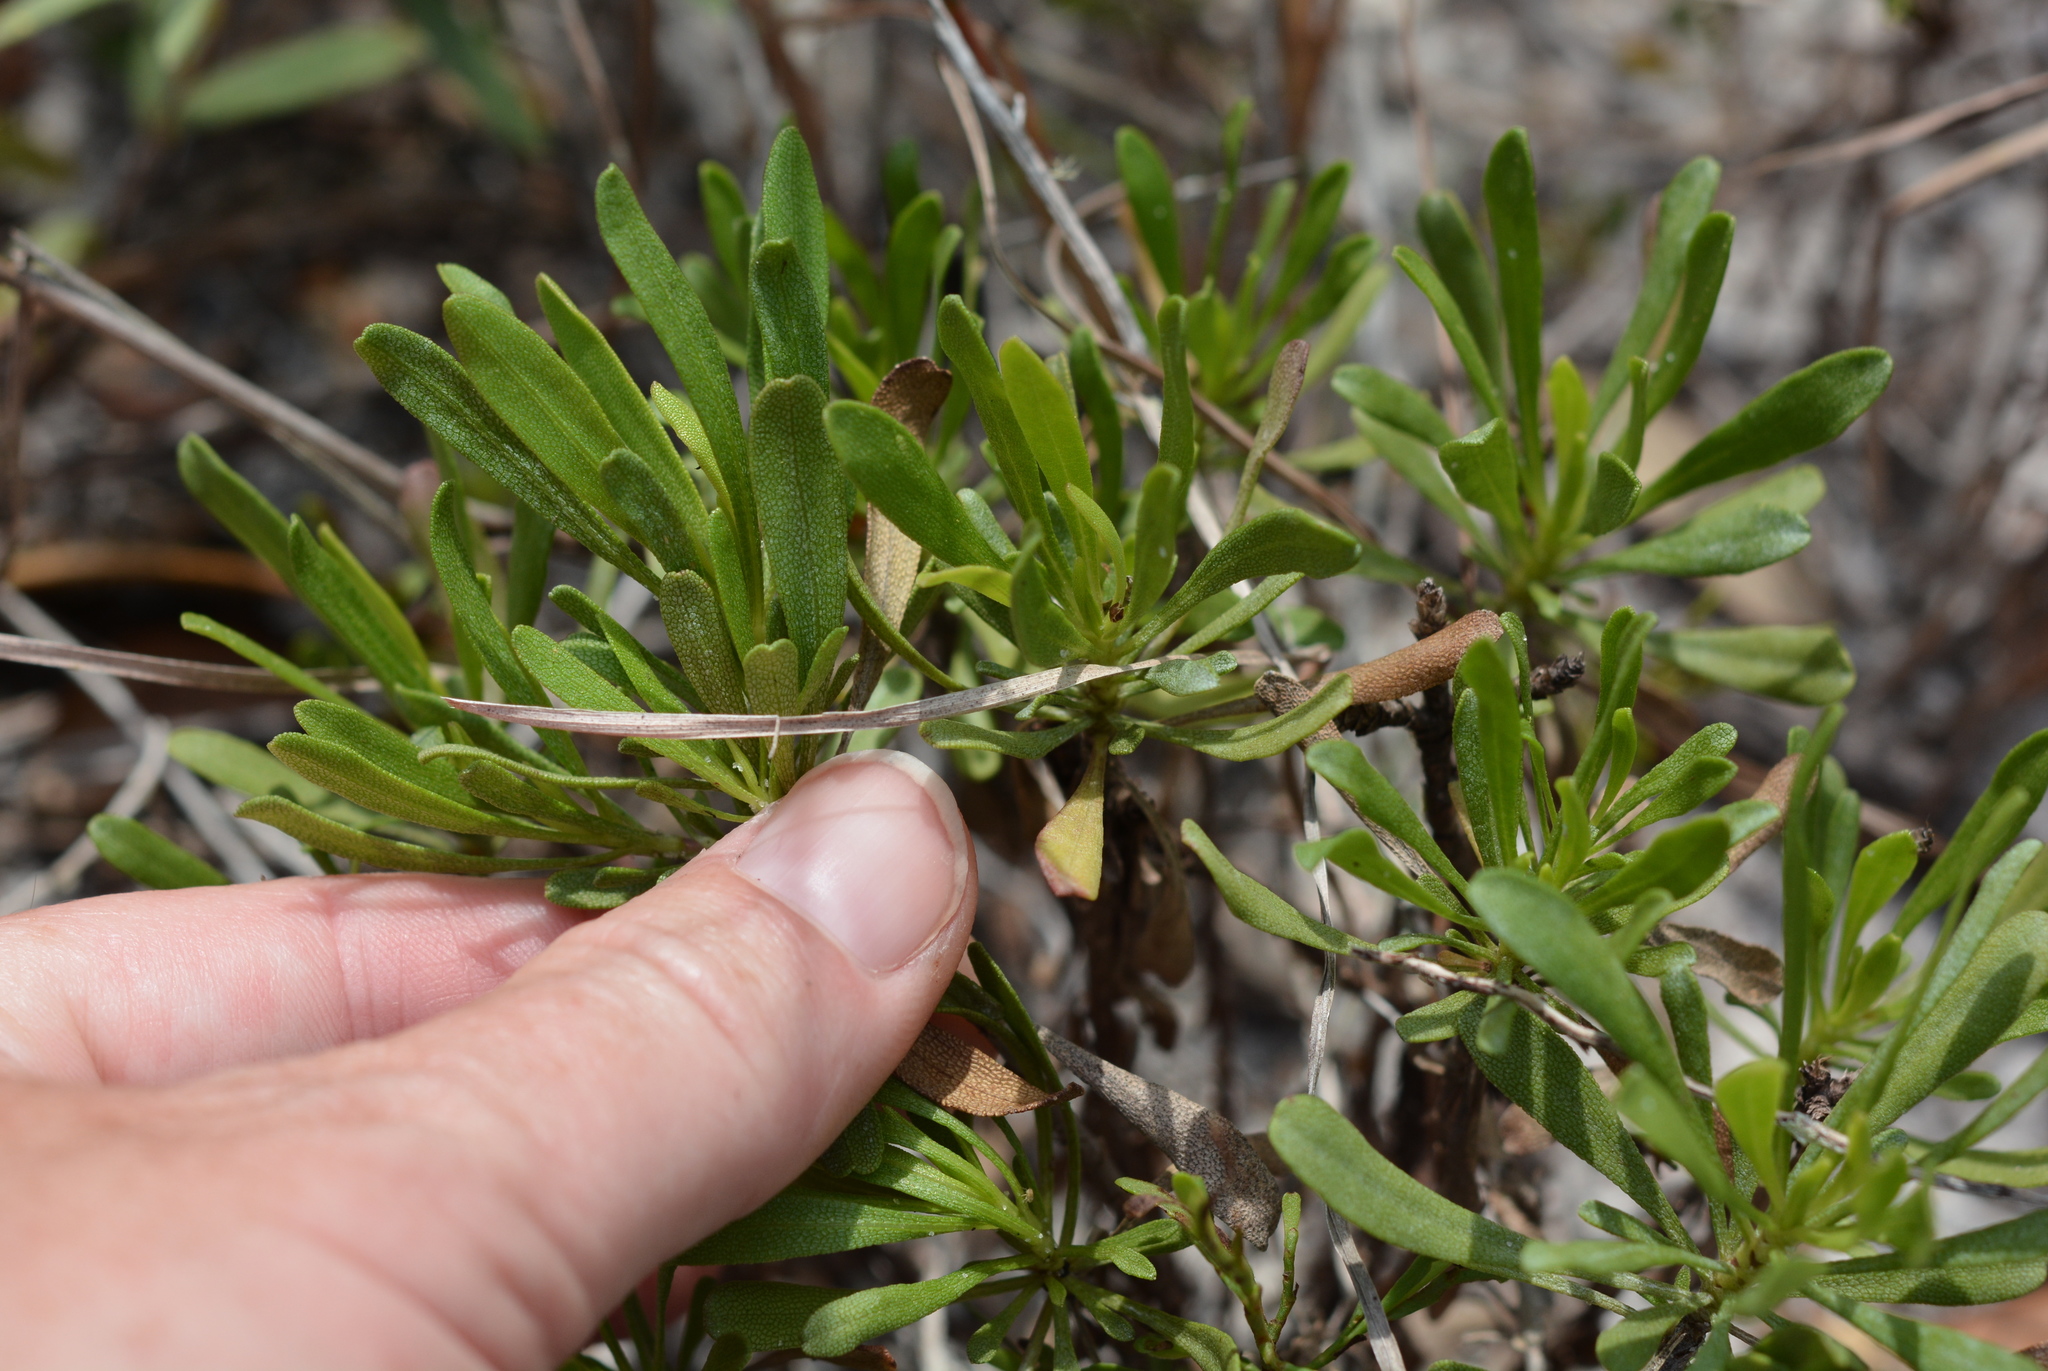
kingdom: Plantae
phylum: Tracheophyta
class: Magnoliopsida
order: Asterales
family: Asteraceae
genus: Chrysoma
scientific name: Chrysoma pauciflosculosa
